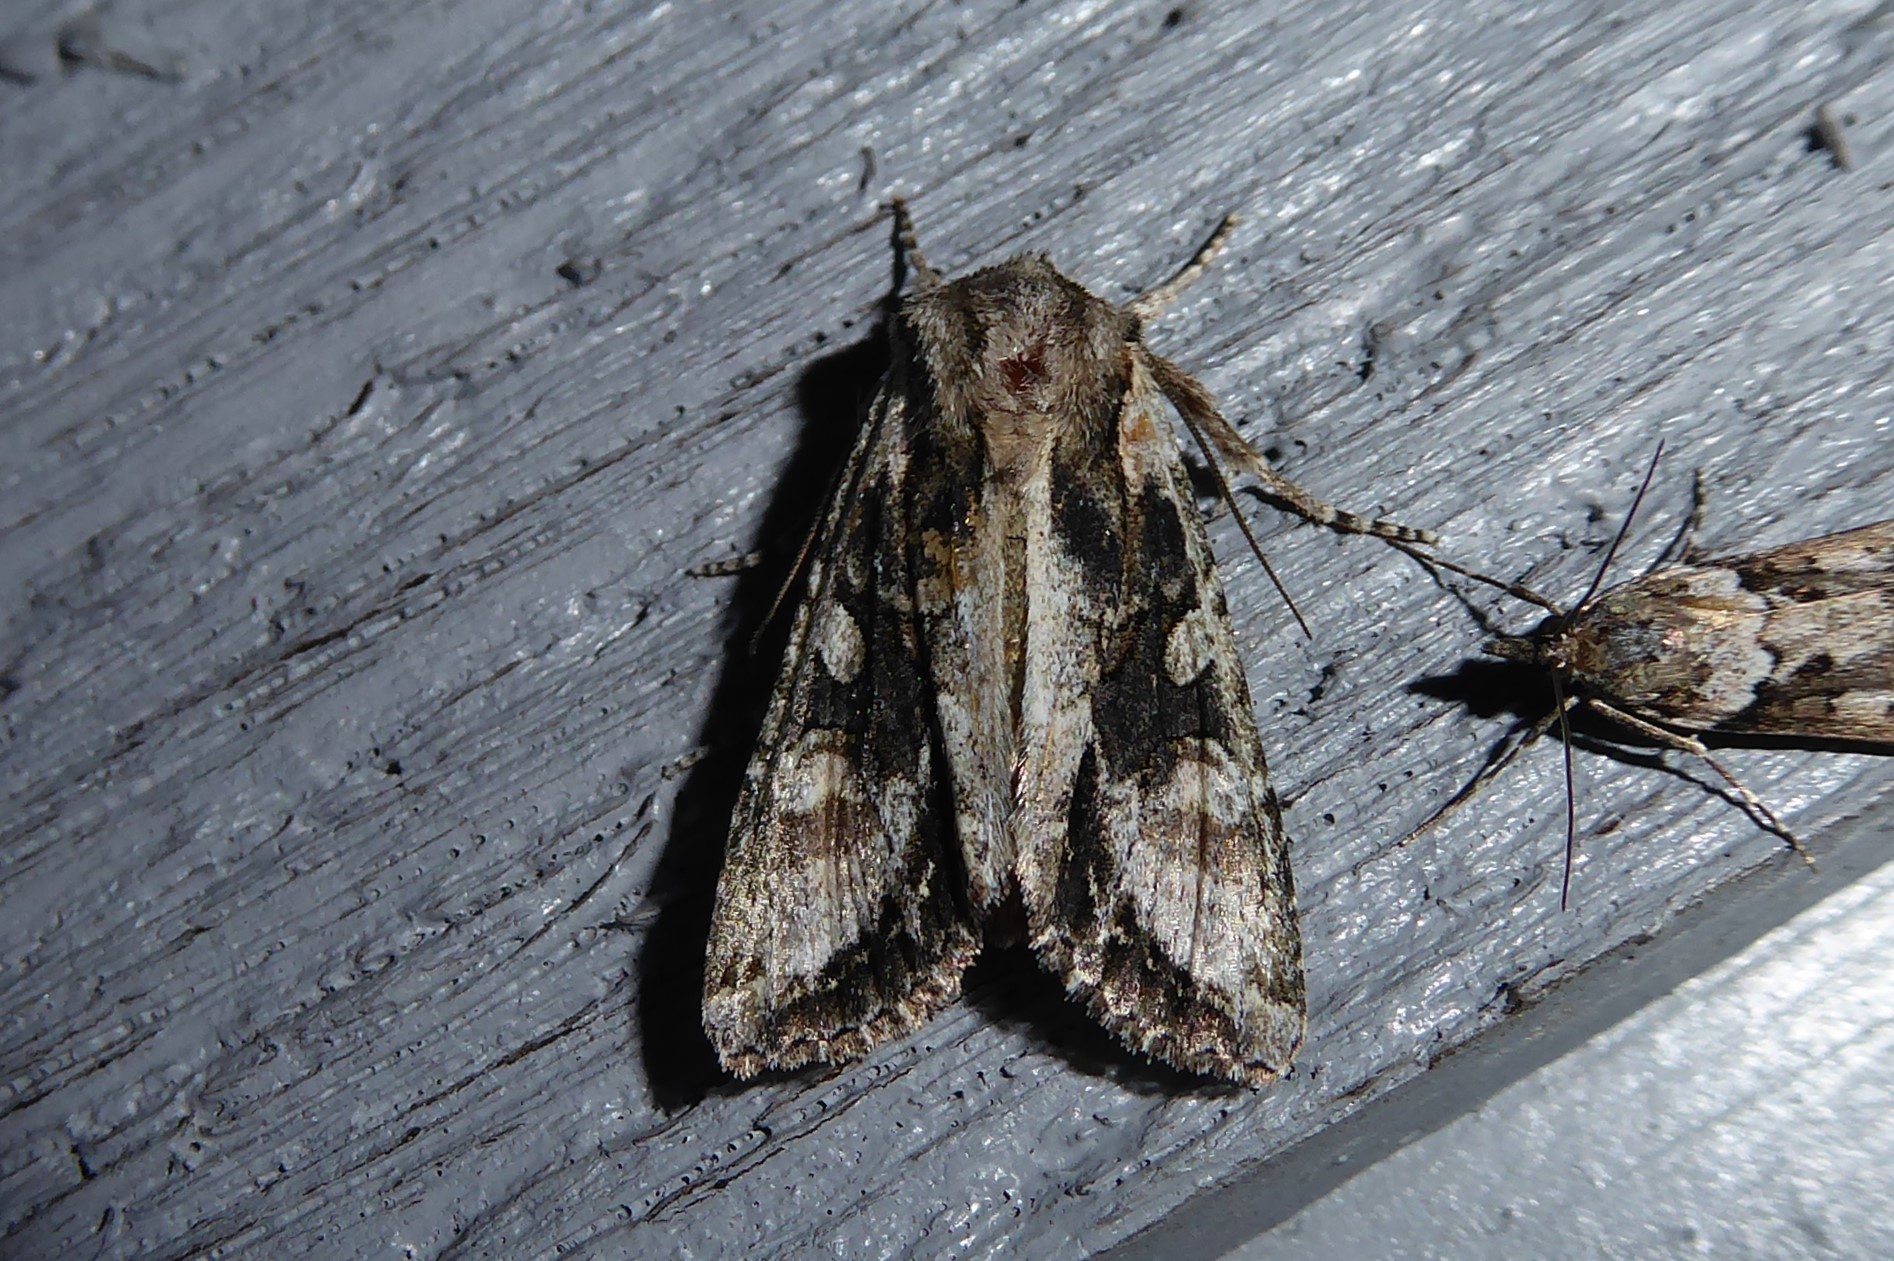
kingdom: Animalia
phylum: Arthropoda
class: Insecta
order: Lepidoptera
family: Noctuidae
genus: Ichneutica
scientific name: Ichneutica mutans
